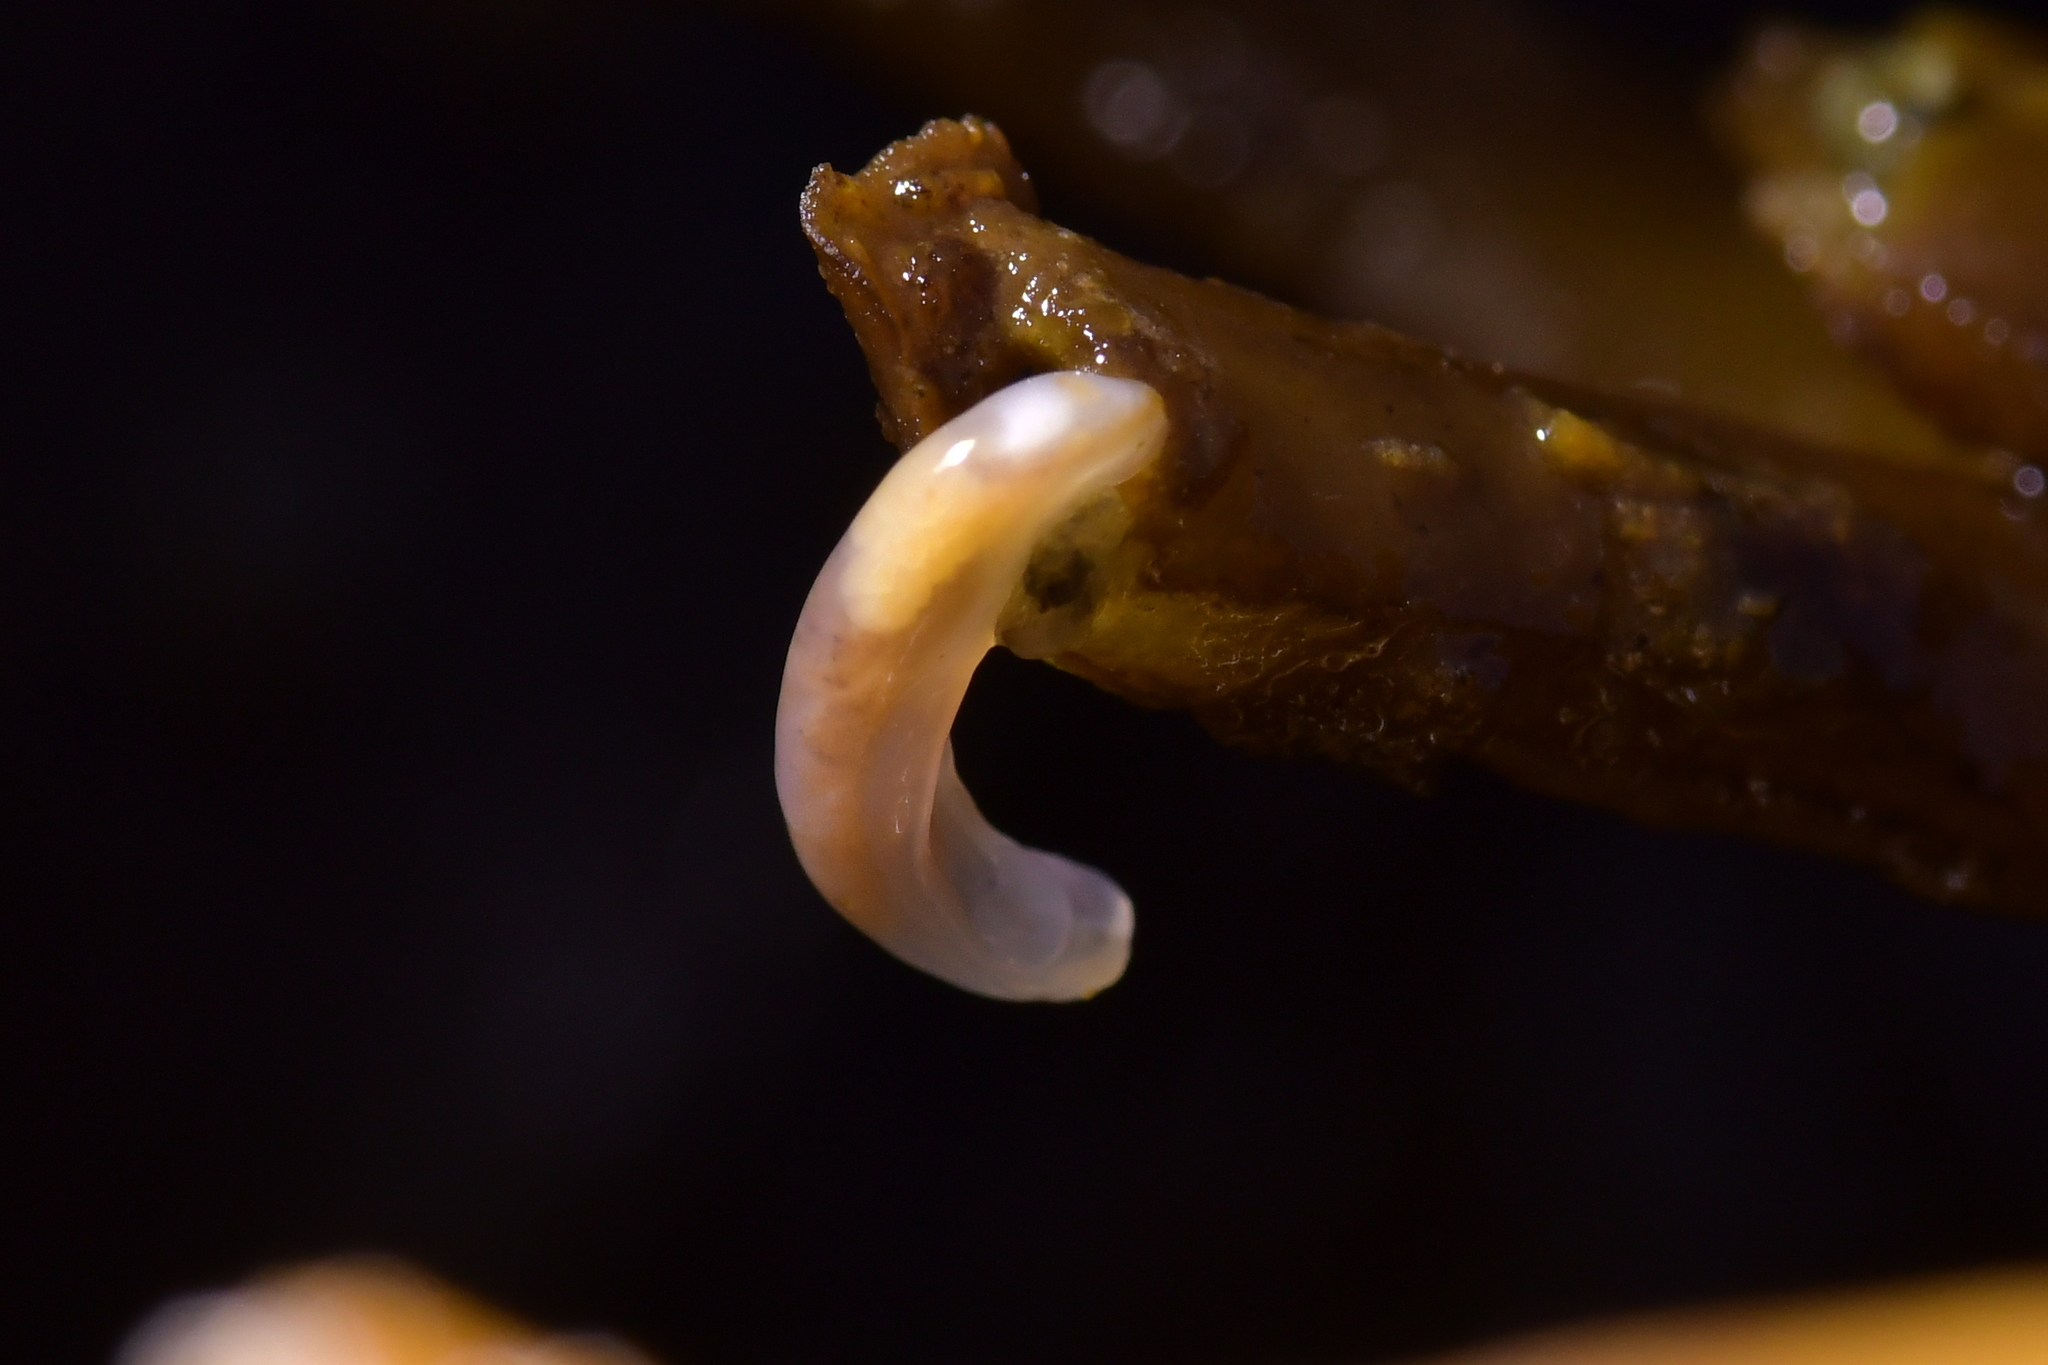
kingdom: Animalia
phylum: Mollusca
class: Gastropoda
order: Ellobiida
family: Otinidae
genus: Smeagol
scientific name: Smeagol climoi
